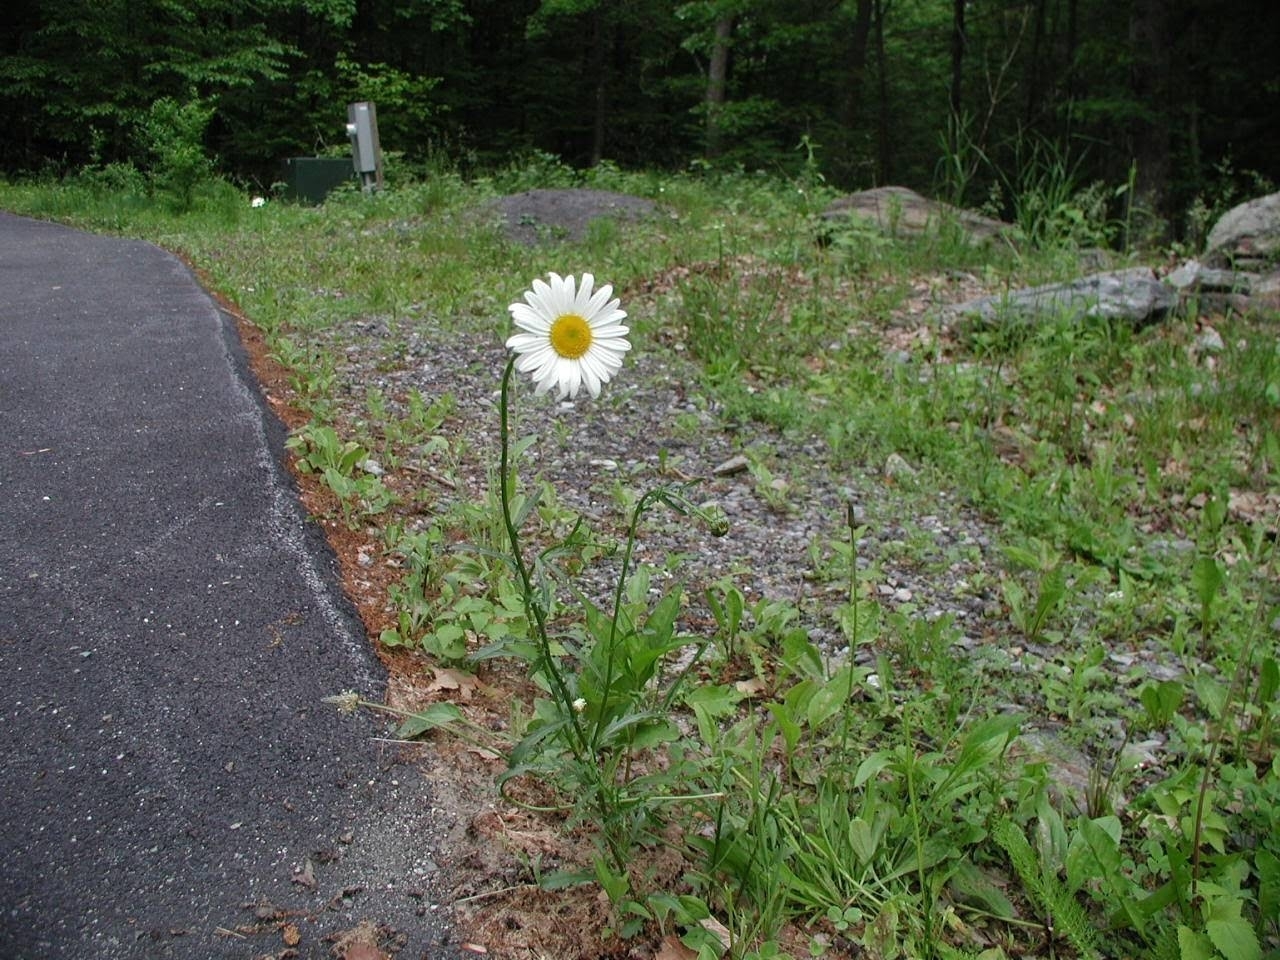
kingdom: Plantae
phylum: Tracheophyta
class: Magnoliopsida
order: Asterales
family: Asteraceae
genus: Leucanthemum
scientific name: Leucanthemum vulgare
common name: Oxeye daisy
